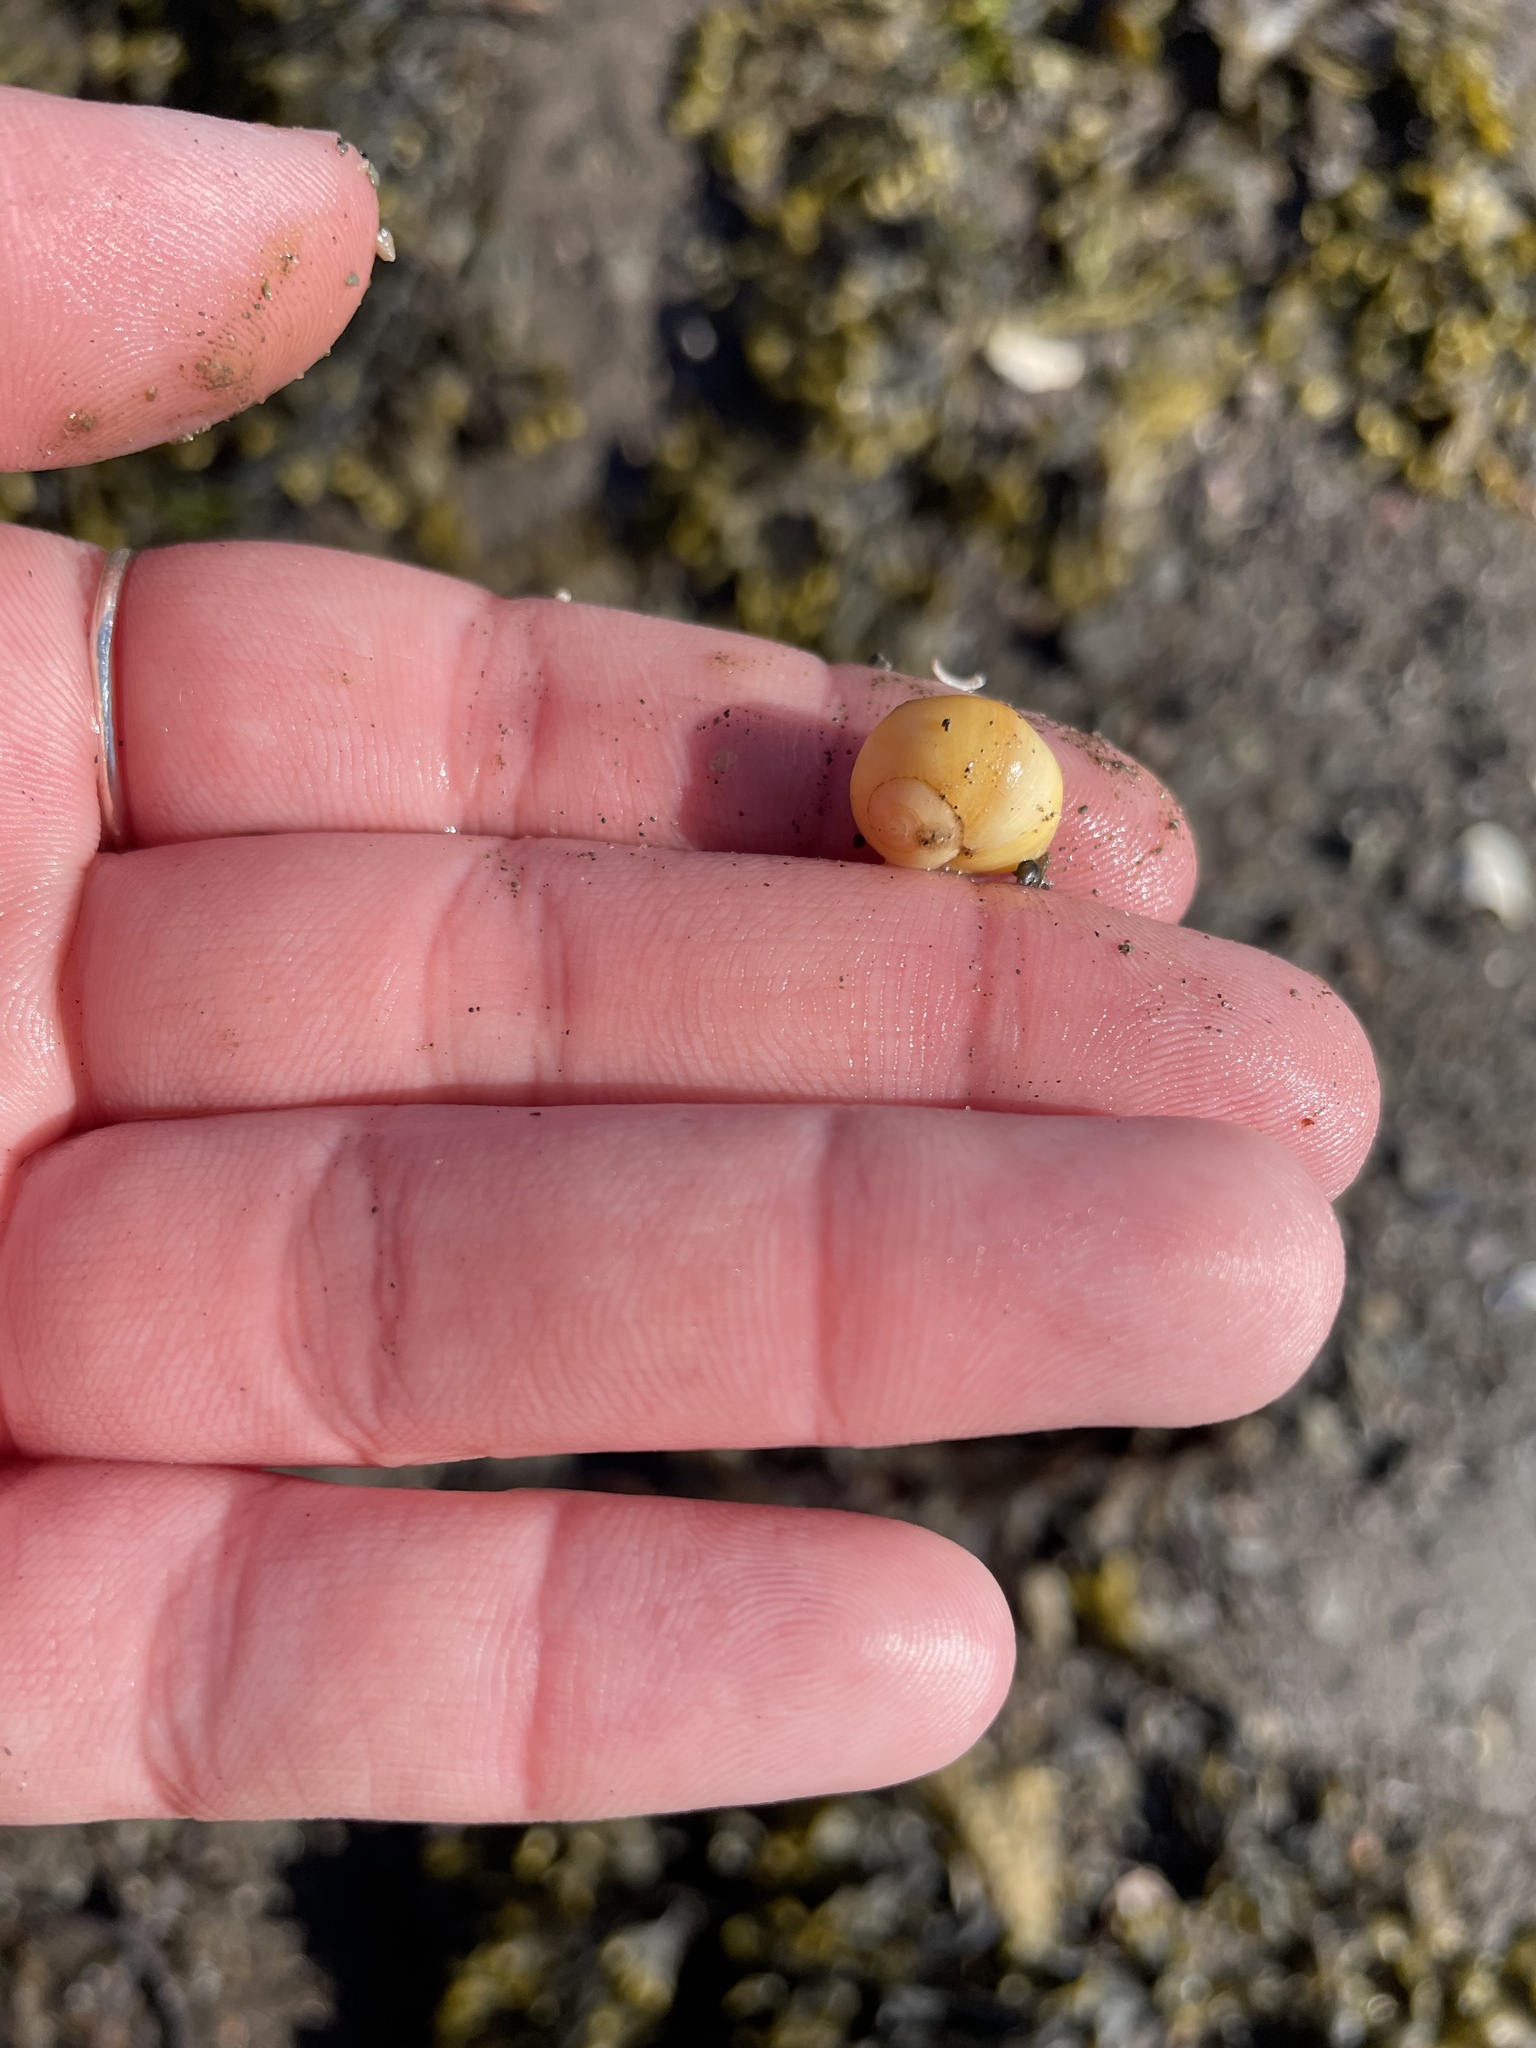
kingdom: Animalia
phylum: Mollusca
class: Gastropoda
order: Littorinimorpha
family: Littorinidae
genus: Littorina
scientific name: Littorina obtusata
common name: Flat periwinkle
